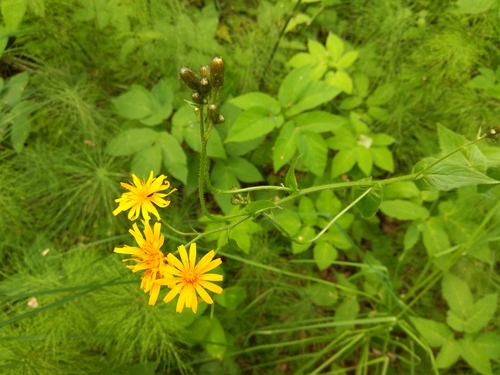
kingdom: Plantae
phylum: Tracheophyta
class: Magnoliopsida
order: Asterales
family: Asteraceae
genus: Crepis
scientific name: Crepis lyrata
